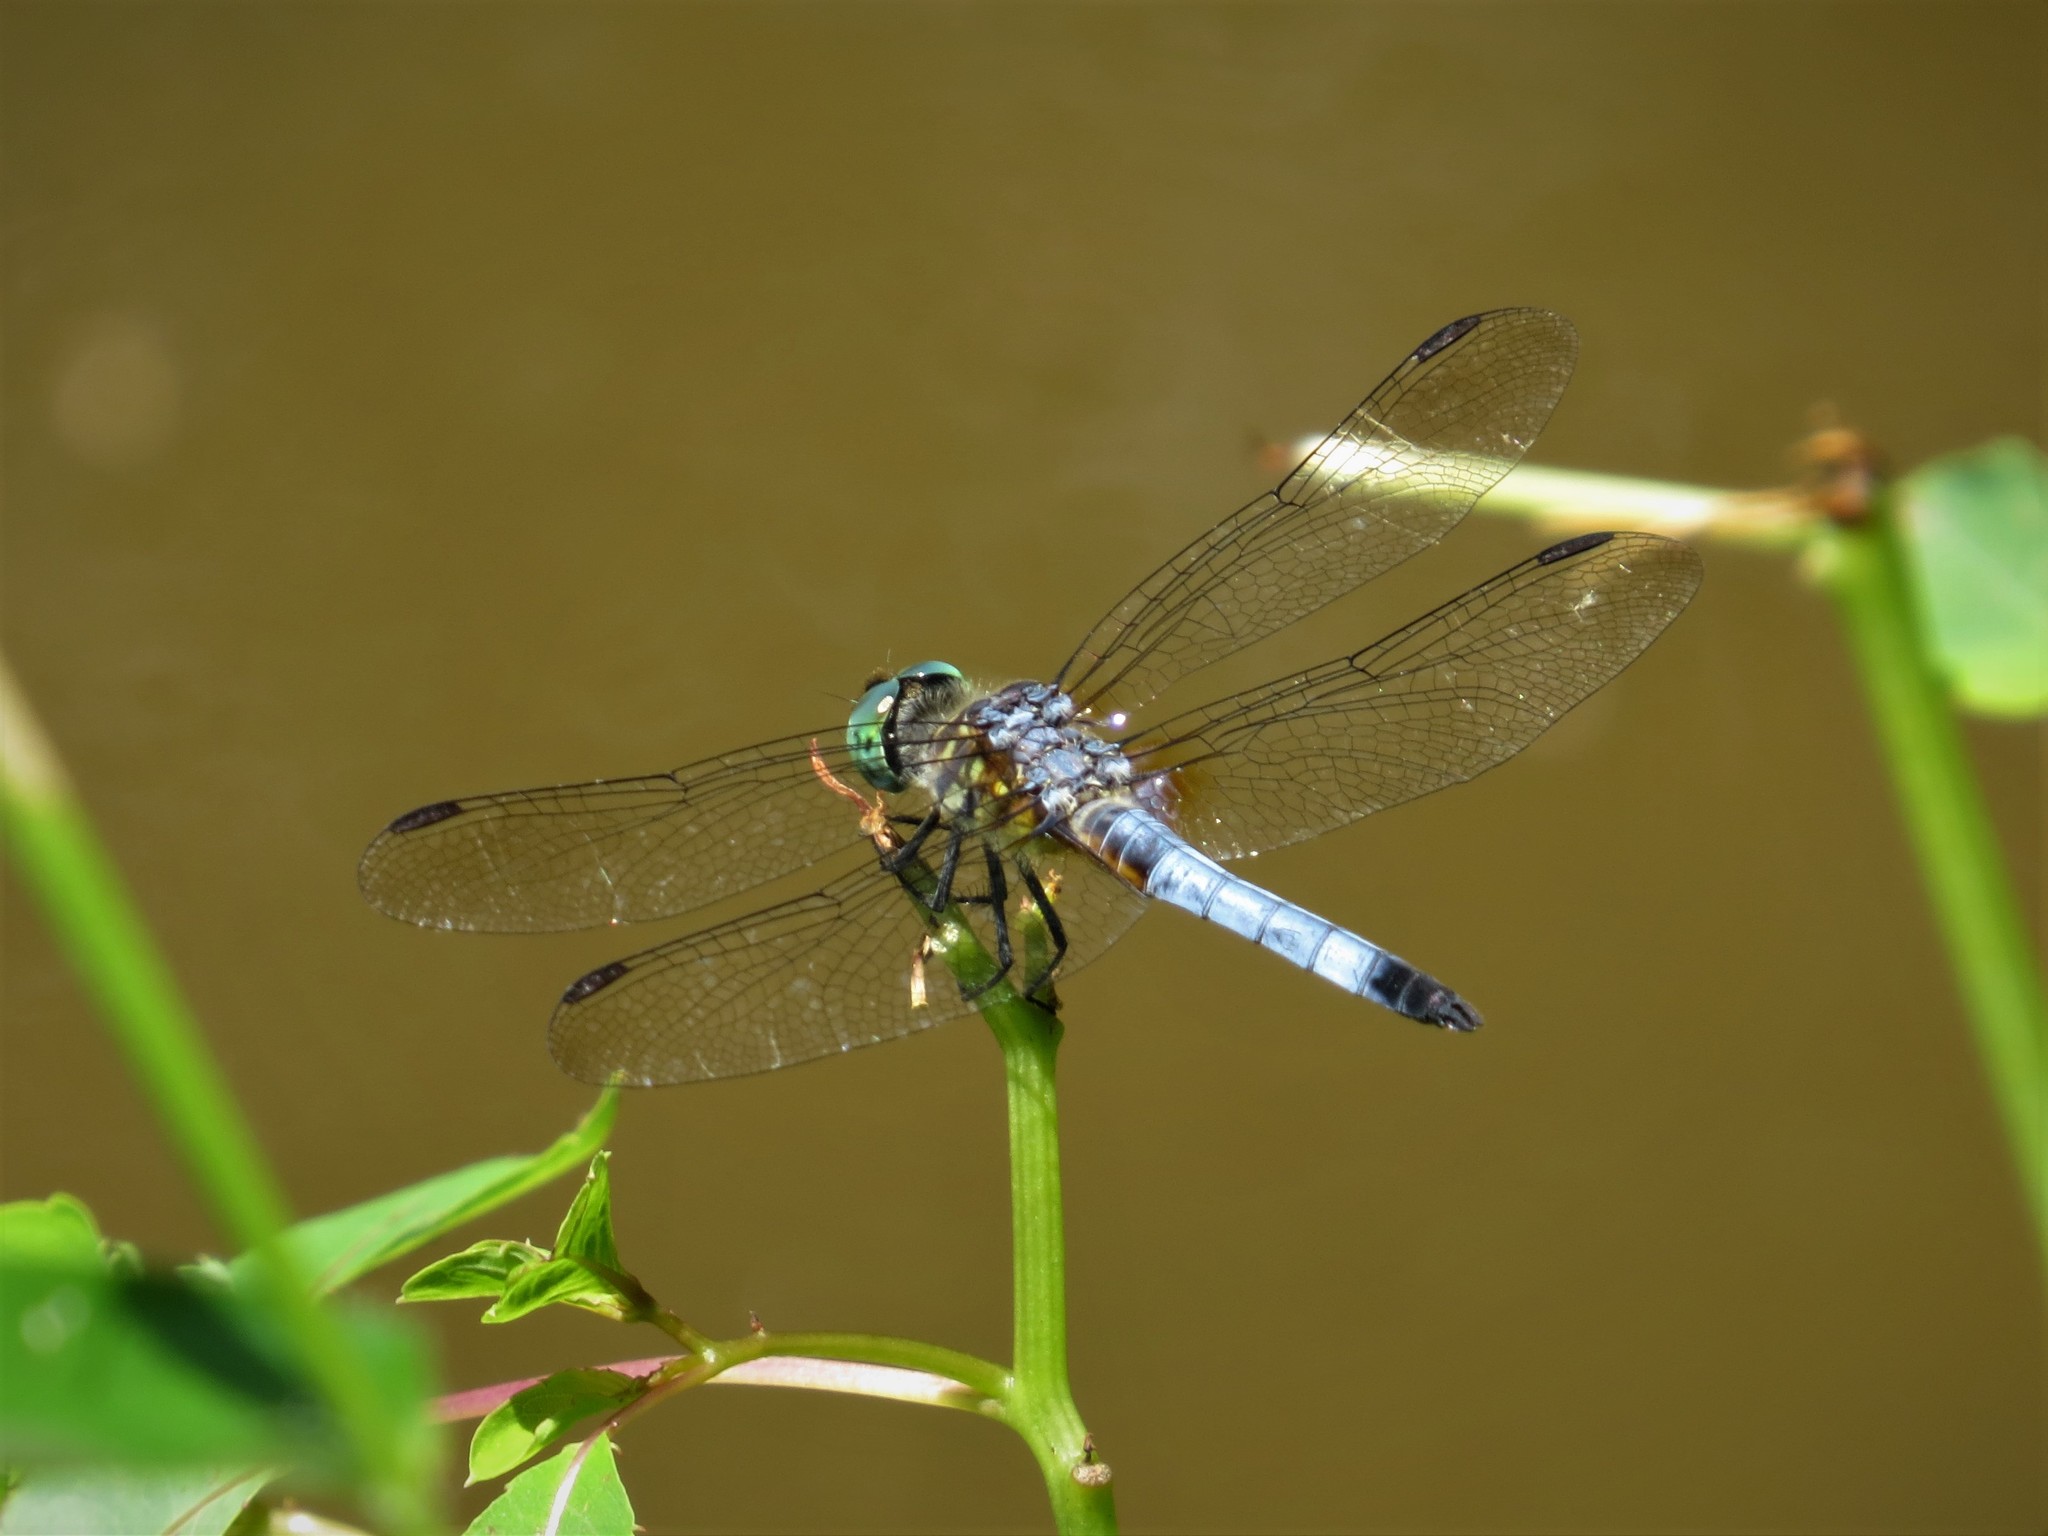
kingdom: Animalia
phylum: Arthropoda
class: Insecta
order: Odonata
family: Libellulidae
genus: Pachydiplax
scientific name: Pachydiplax longipennis
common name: Blue dasher
